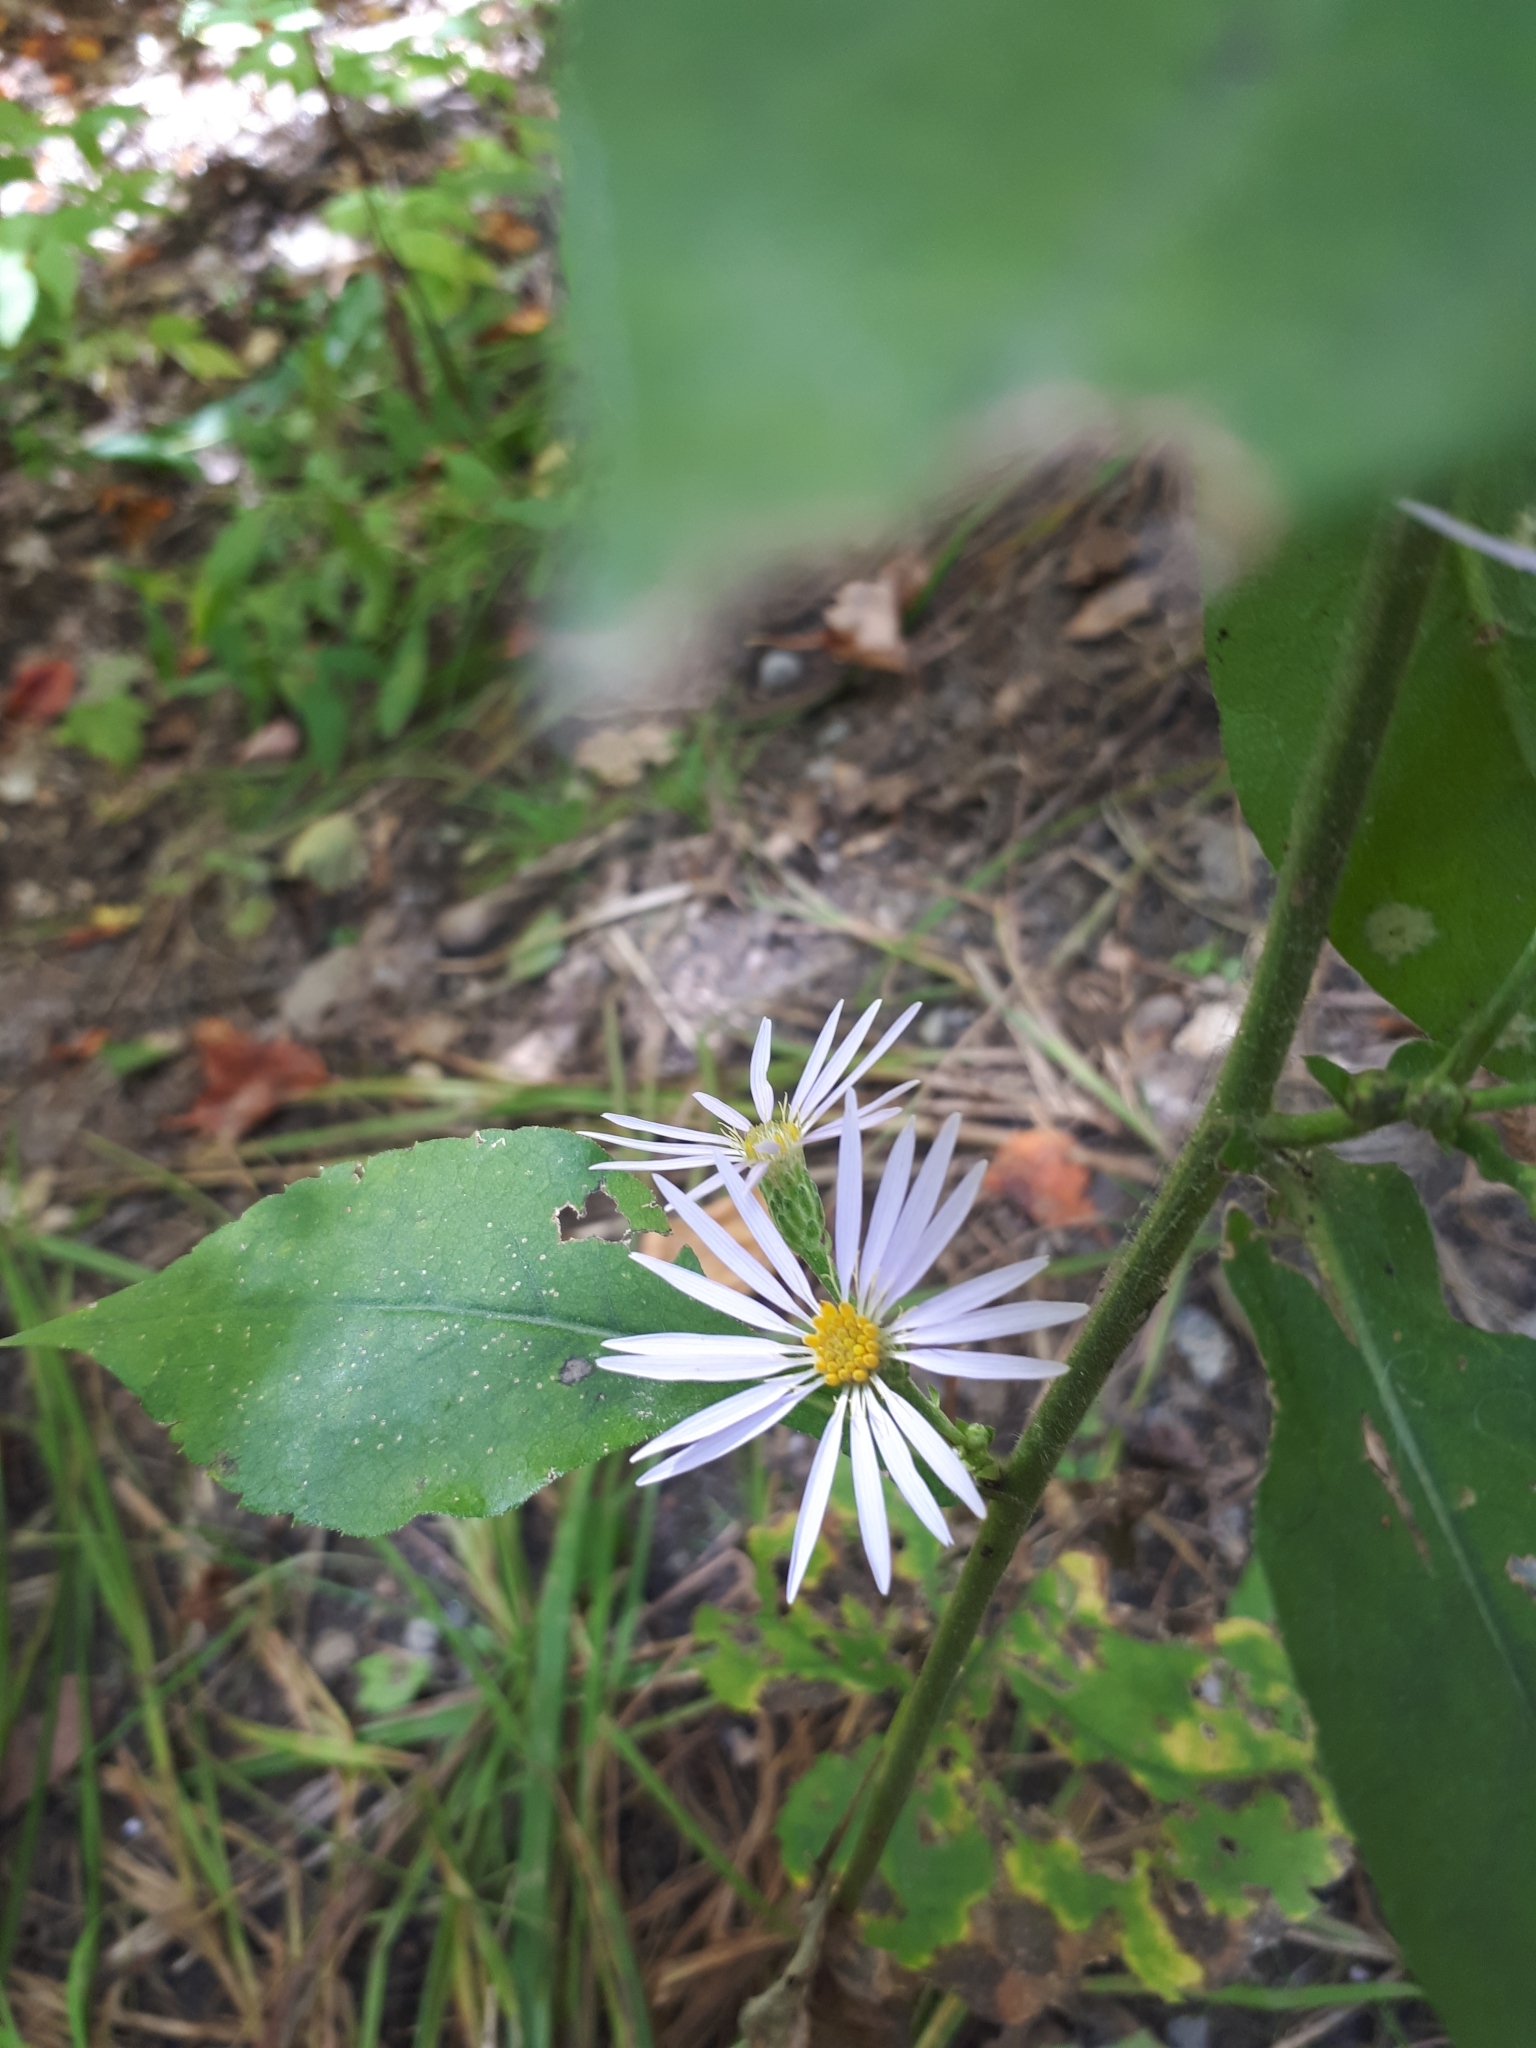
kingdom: Plantae
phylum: Tracheophyta
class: Magnoliopsida
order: Asterales
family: Asteraceae
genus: Eurybia
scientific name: Eurybia macrophylla
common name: Big-leaved aster
